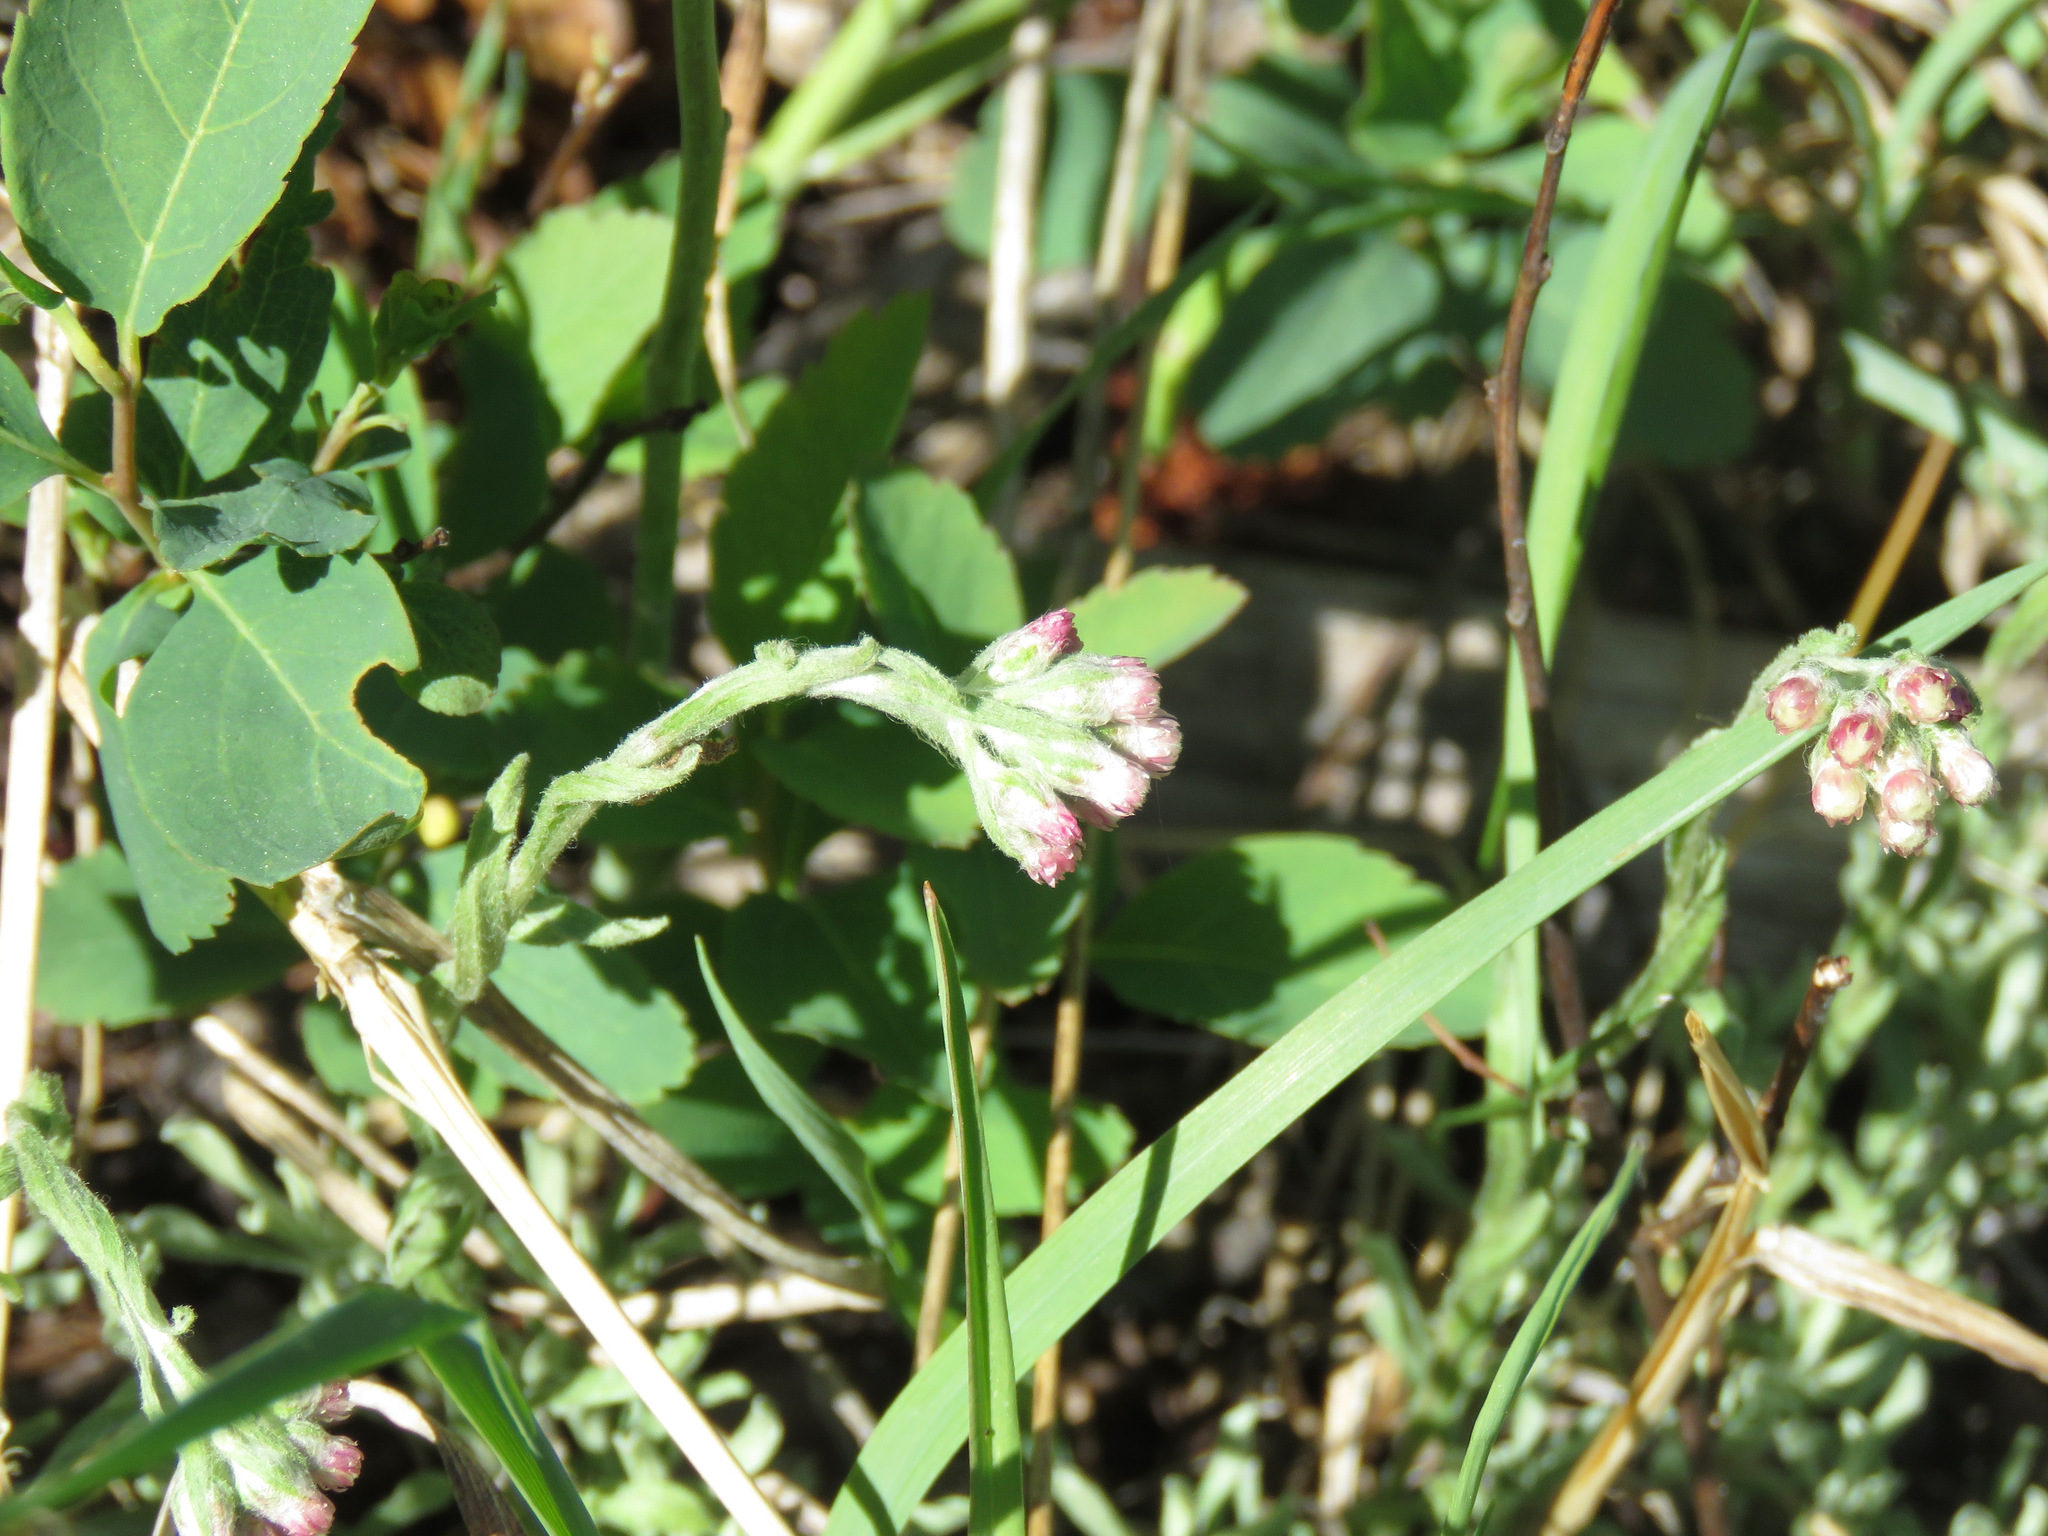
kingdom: Plantae
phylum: Tracheophyta
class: Magnoliopsida
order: Asterales
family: Asteraceae
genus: Antennaria
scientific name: Antennaria rosea
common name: Rosy pussytoes
